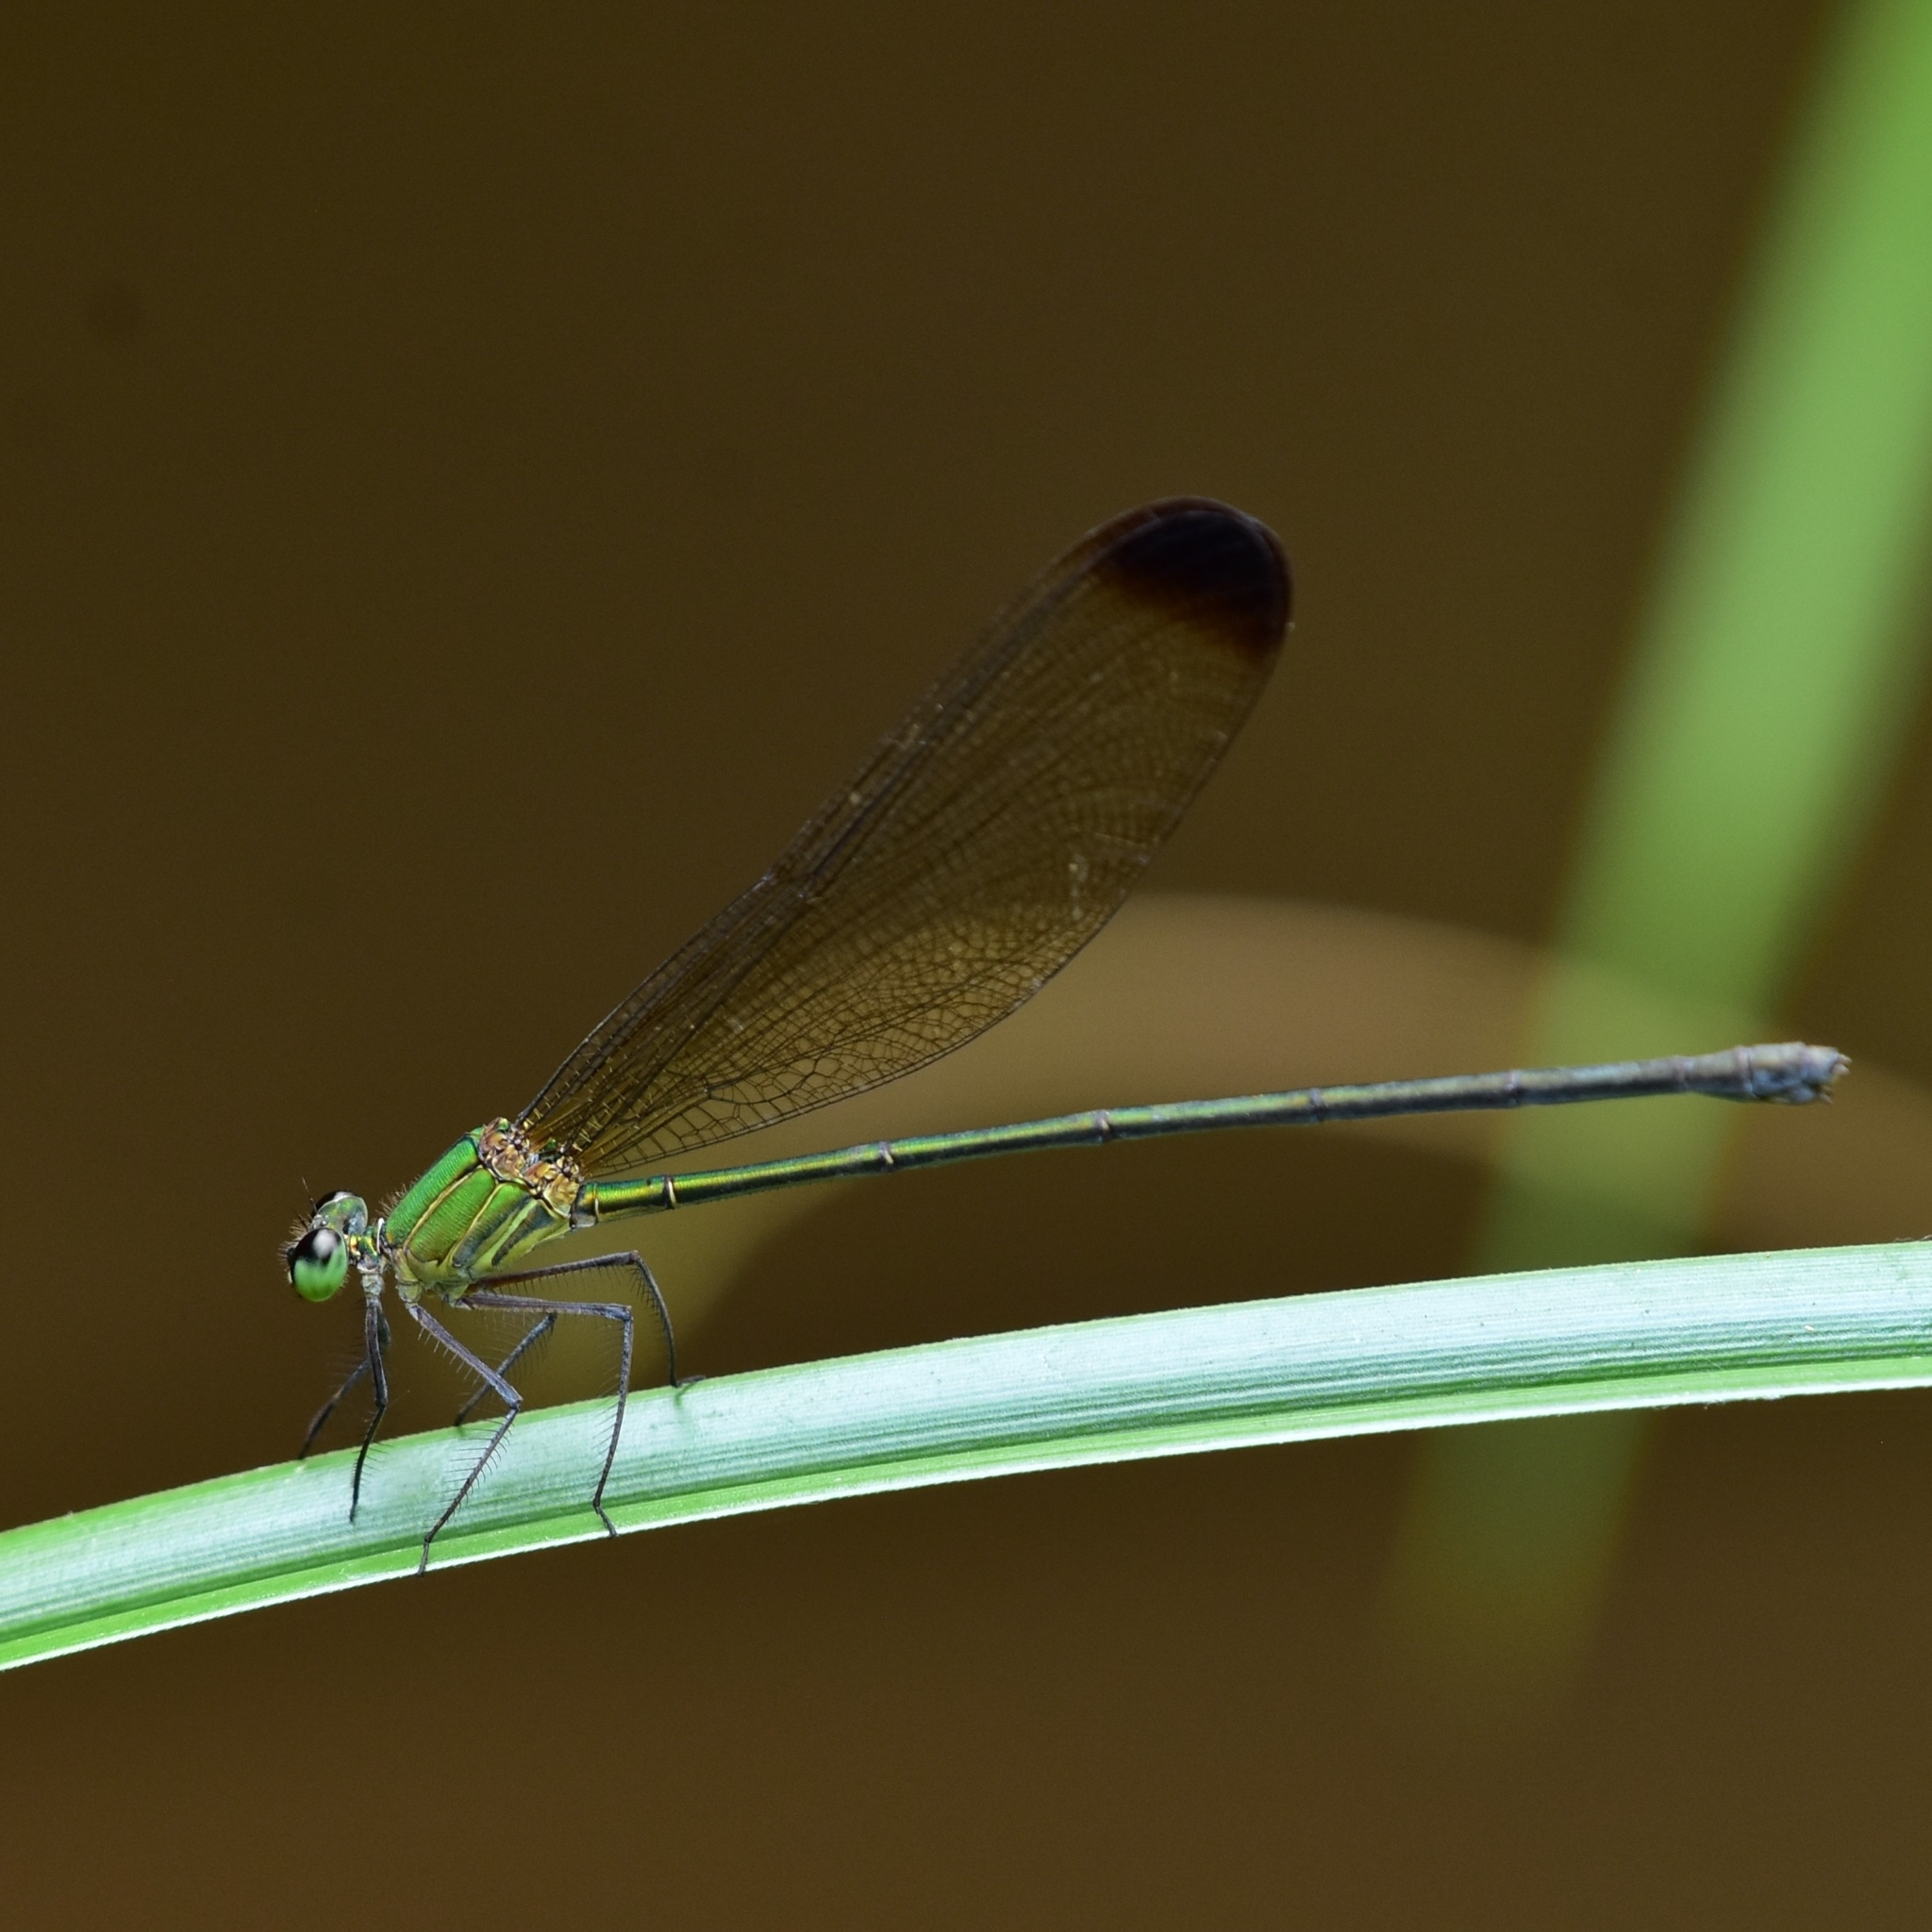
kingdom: Animalia
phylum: Arthropoda
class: Insecta
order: Odonata
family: Calopterygidae
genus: Vestalis
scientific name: Vestalis apicalis
